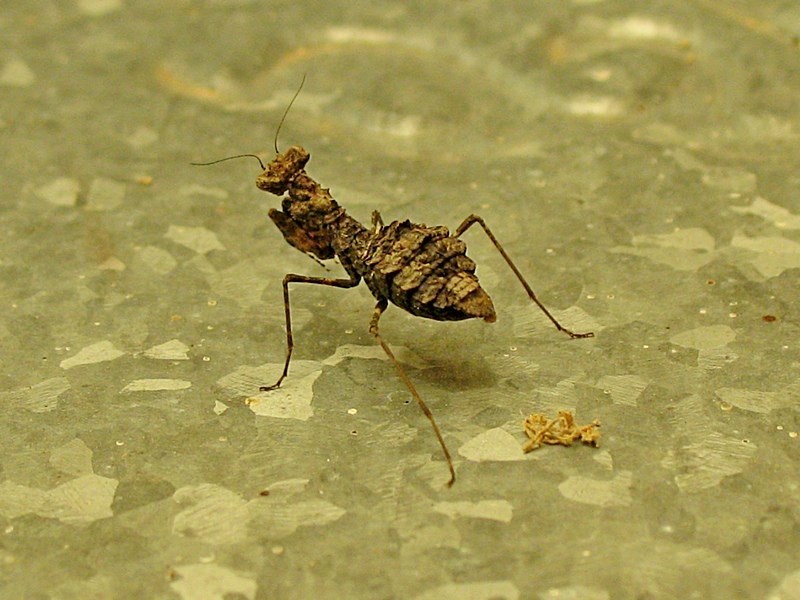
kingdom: Animalia
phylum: Arthropoda
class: Insecta
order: Mantodea
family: Nanomantidae
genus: Paraoxypilus
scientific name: Paraoxypilus tasmaniensis
